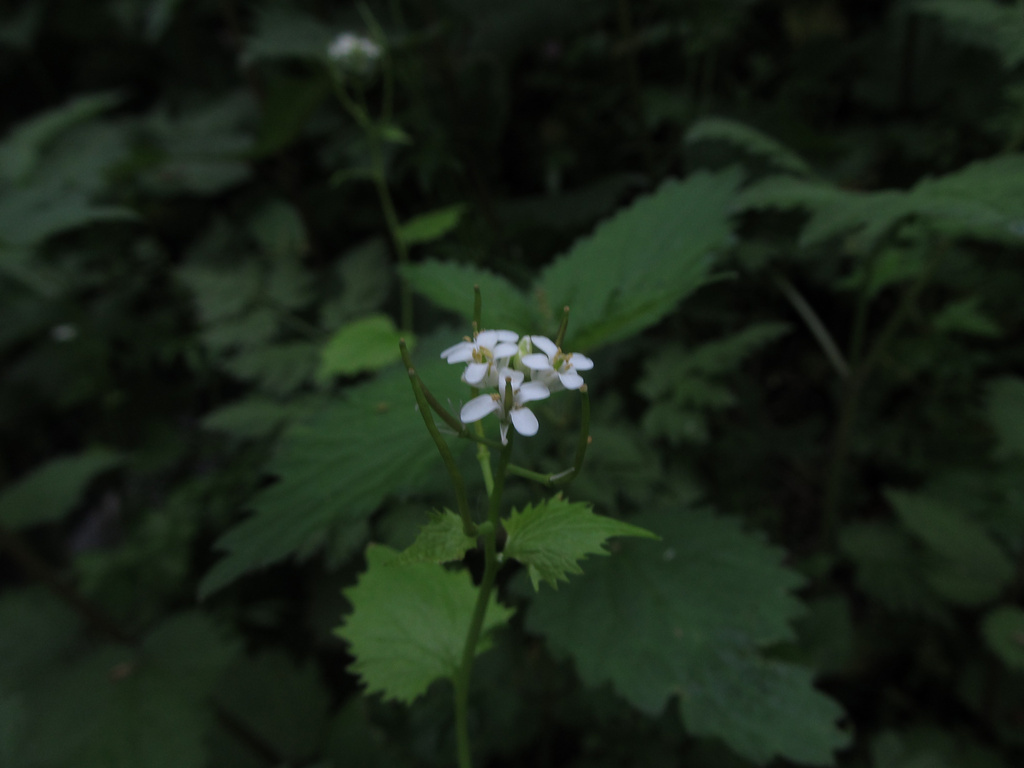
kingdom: Plantae
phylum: Tracheophyta
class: Magnoliopsida
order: Brassicales
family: Brassicaceae
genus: Alliaria
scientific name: Alliaria petiolata
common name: Garlic mustard
